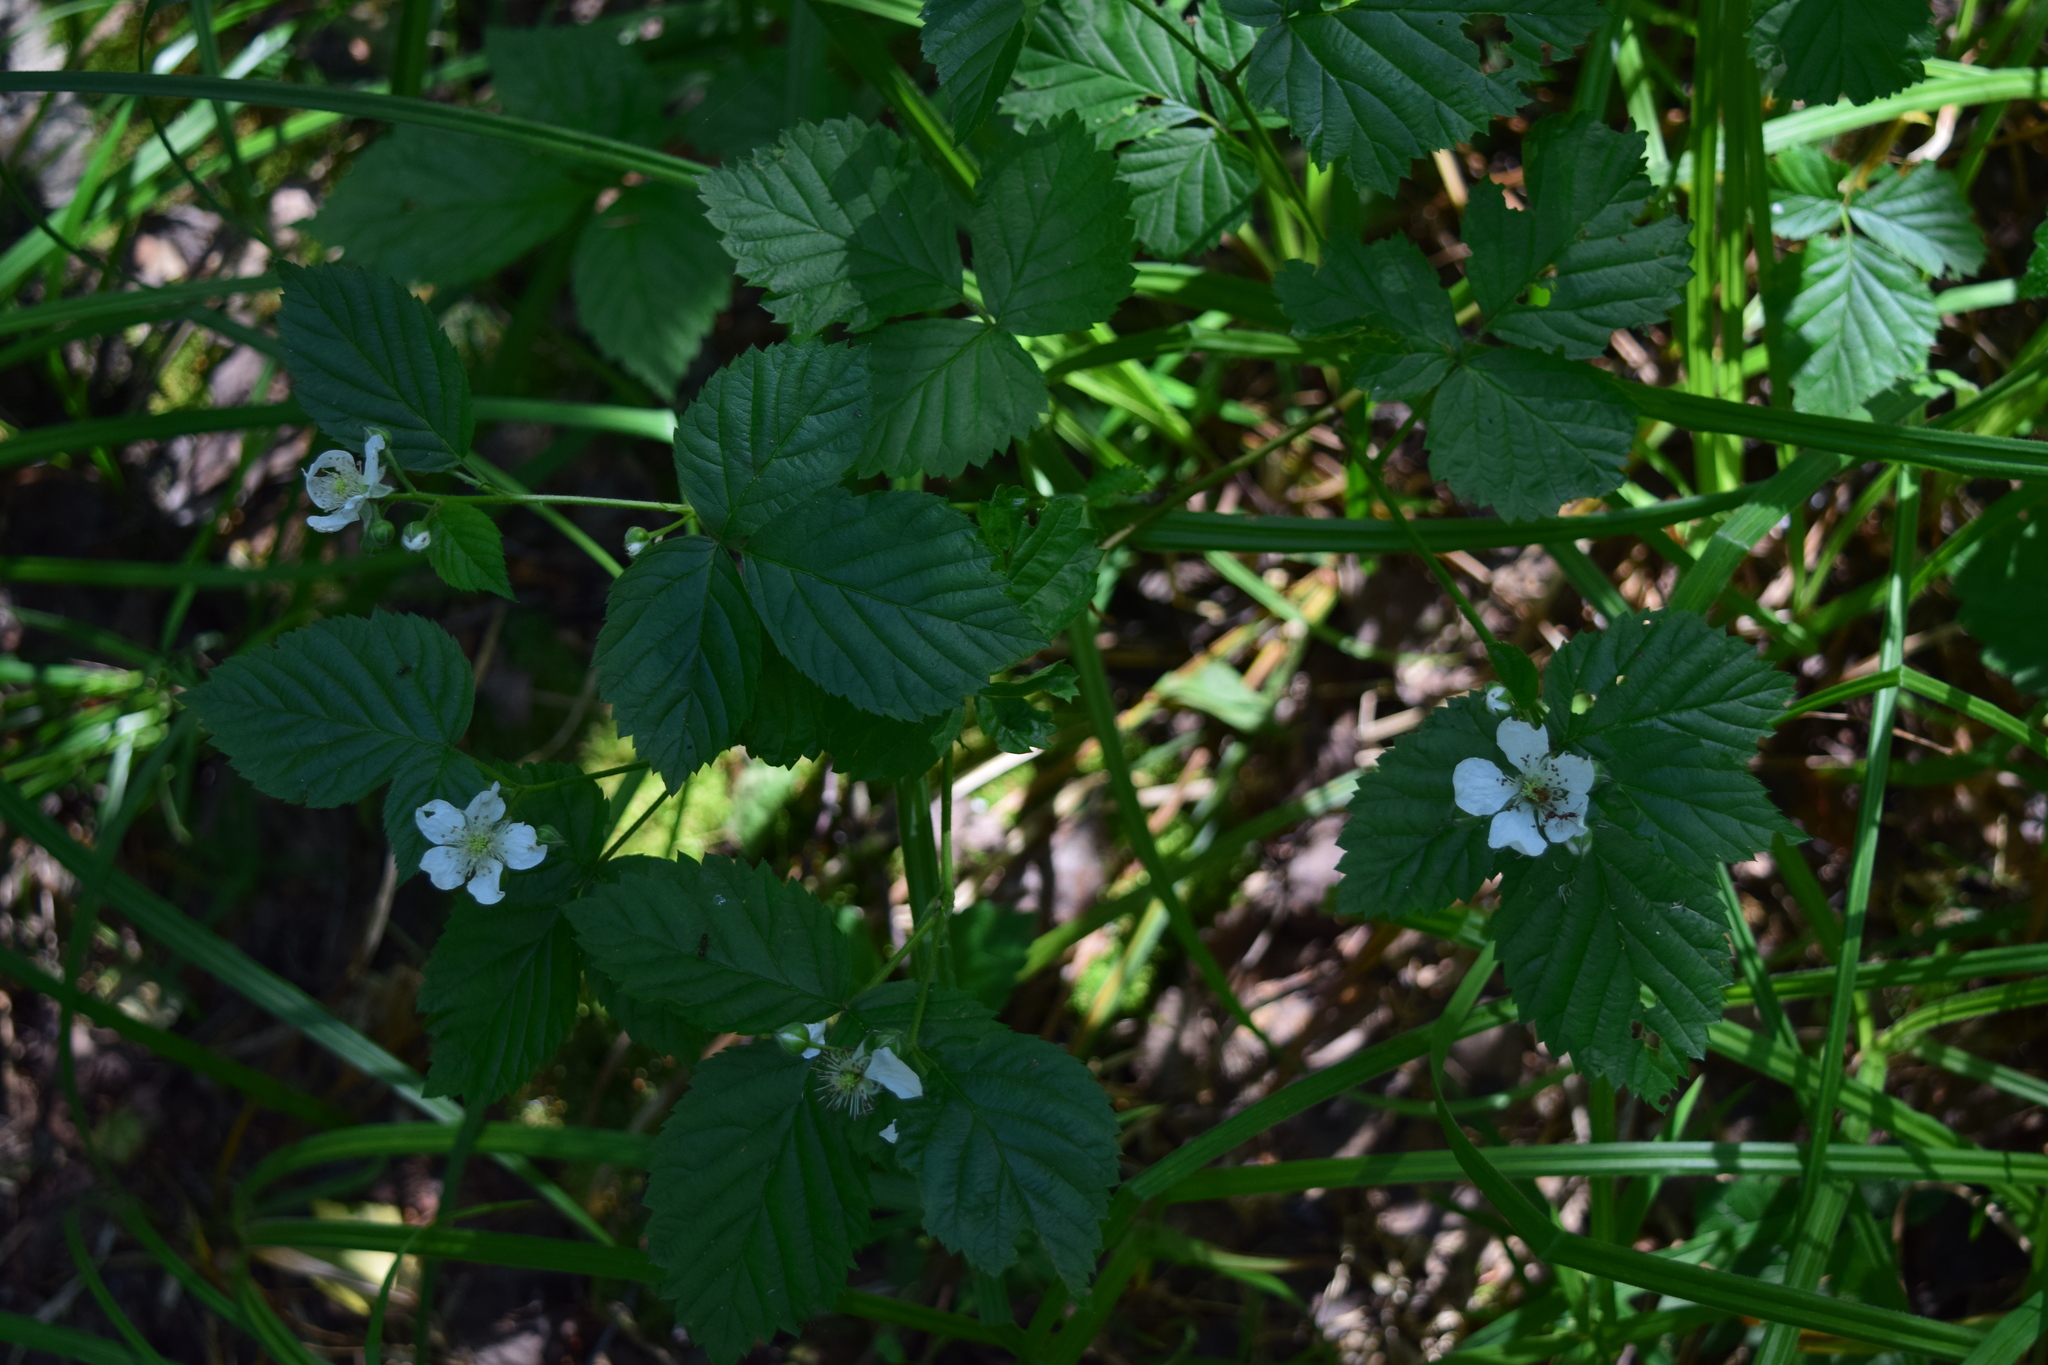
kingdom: Plantae
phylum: Tracheophyta
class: Magnoliopsida
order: Rosales
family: Rosaceae
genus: Rubus
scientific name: Rubus polonicus
